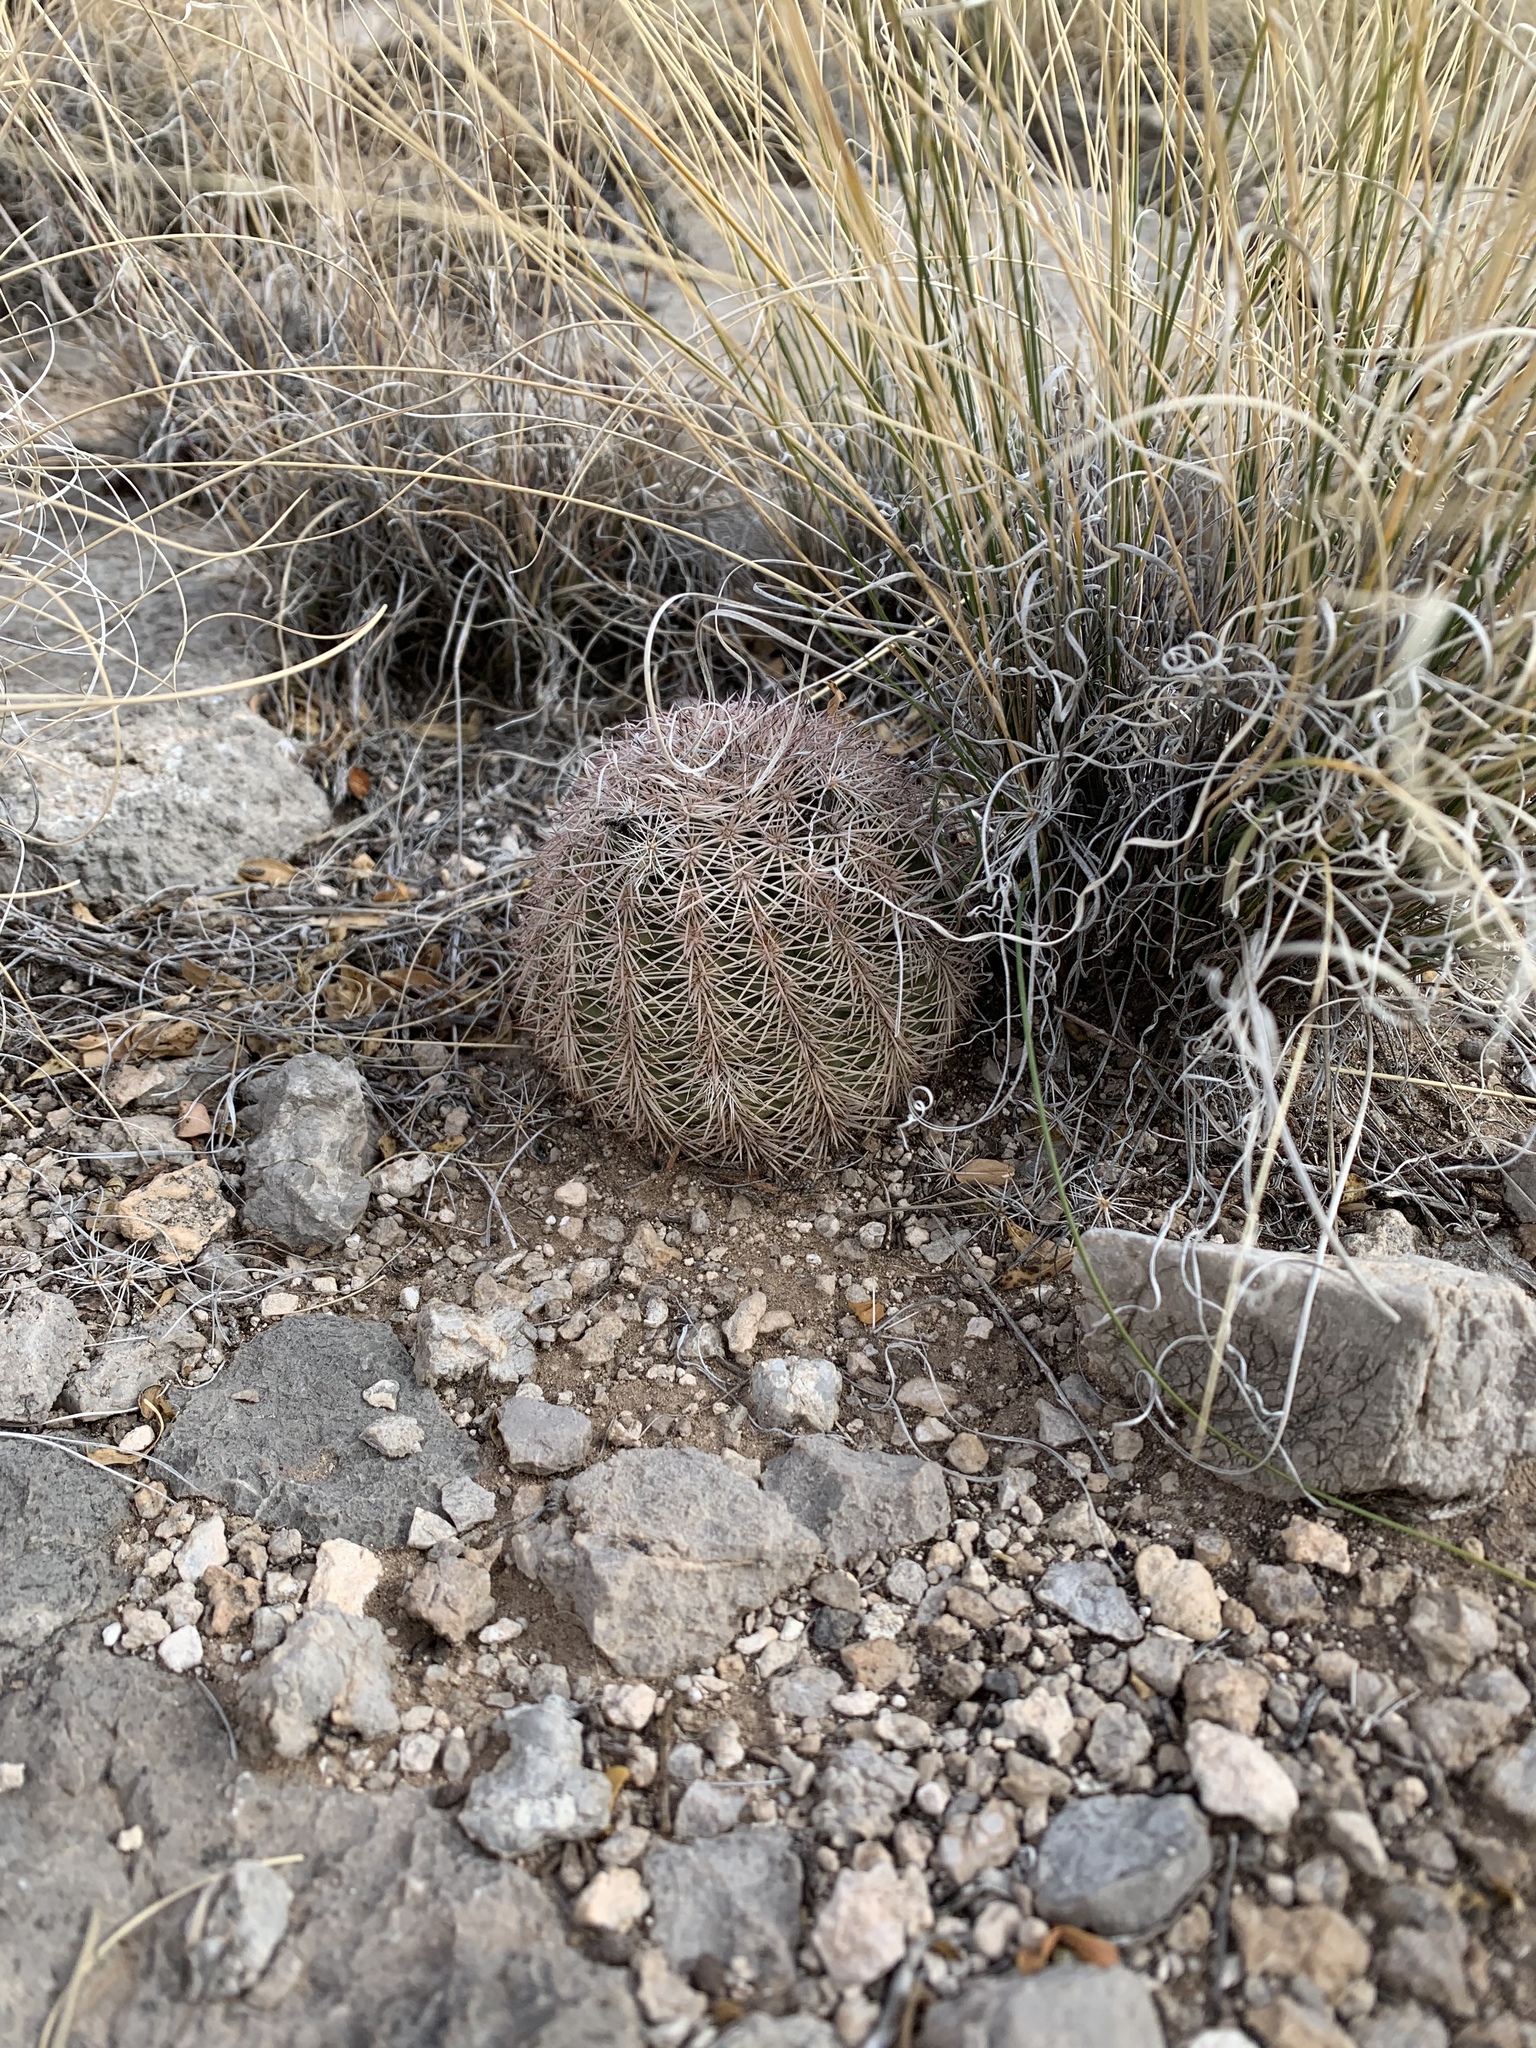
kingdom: Plantae
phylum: Tracheophyta
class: Magnoliopsida
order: Caryophyllales
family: Cactaceae
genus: Echinocereus
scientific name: Echinocereus dasyacanthus
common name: Spiny hedgehog cactus
